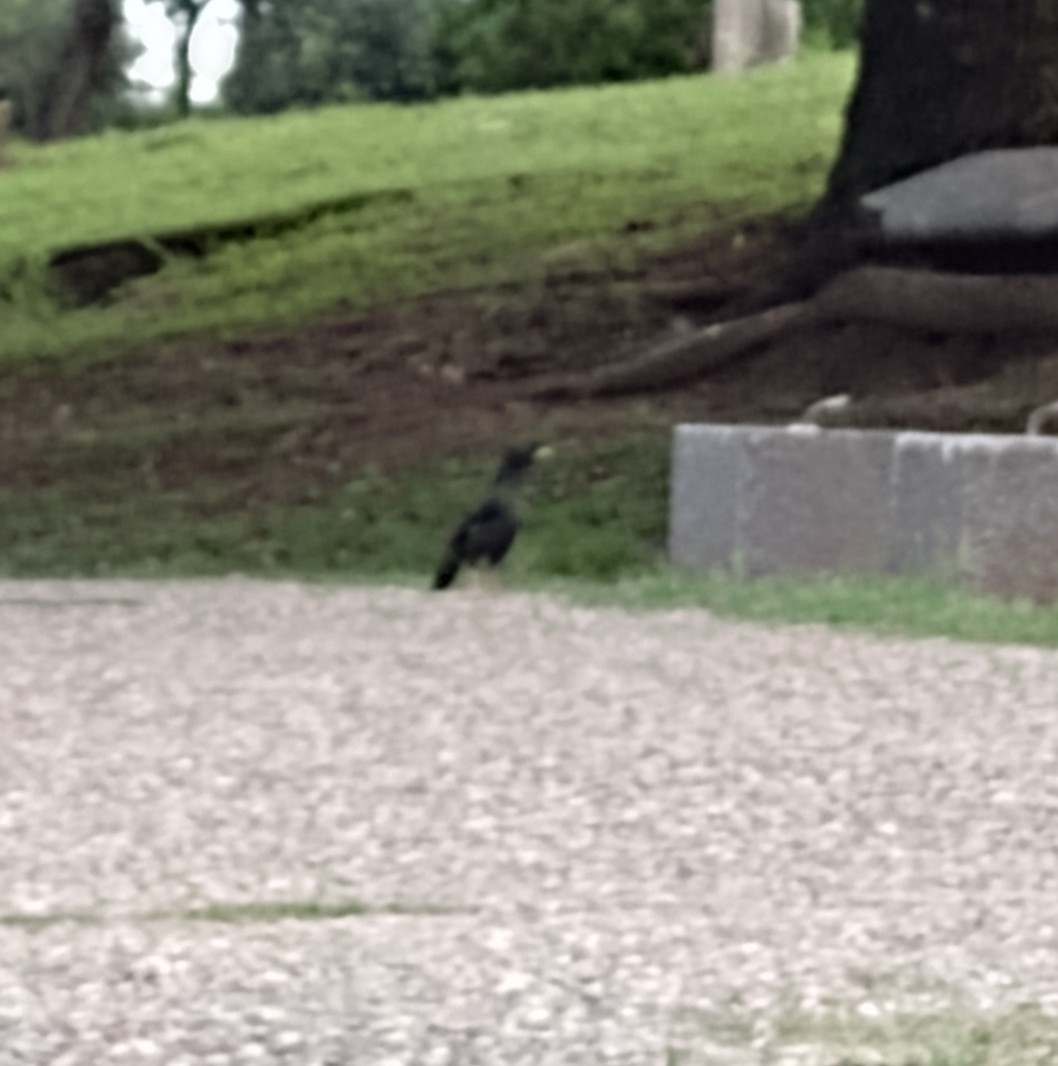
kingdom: Animalia
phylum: Chordata
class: Aves
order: Passeriformes
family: Sturnidae
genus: Acridotheres
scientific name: Acridotheres cristatellus
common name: Crested myna
